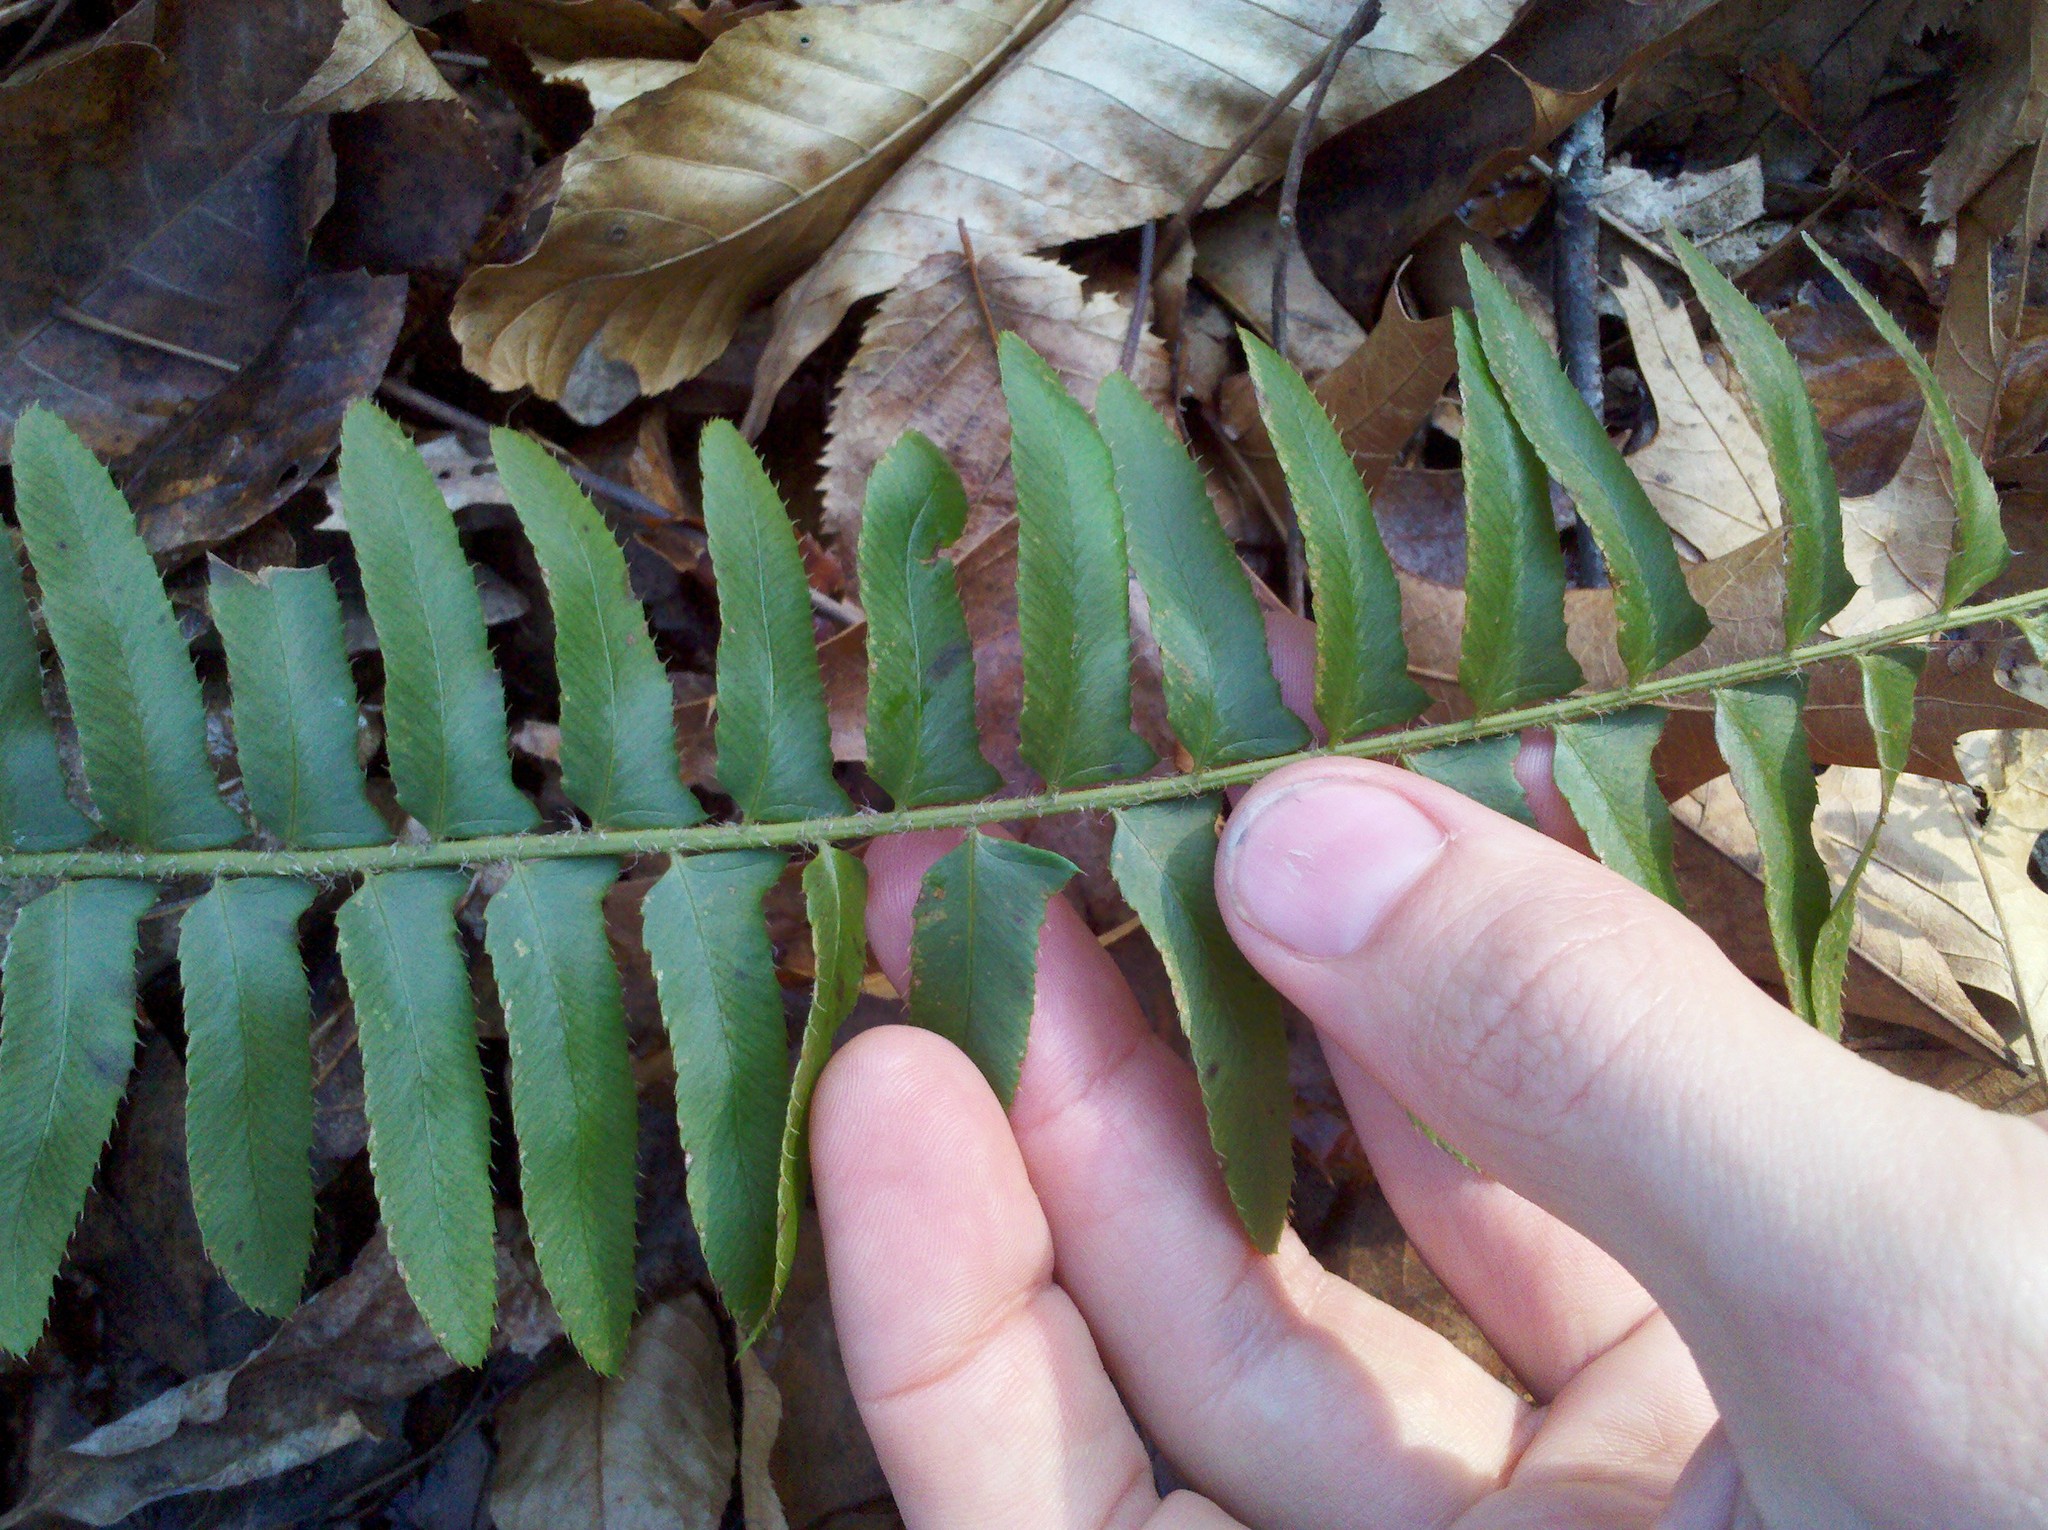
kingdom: Plantae
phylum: Tracheophyta
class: Polypodiopsida
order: Polypodiales
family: Dryopteridaceae
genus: Polystichum
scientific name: Polystichum acrostichoides
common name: Christmas fern
